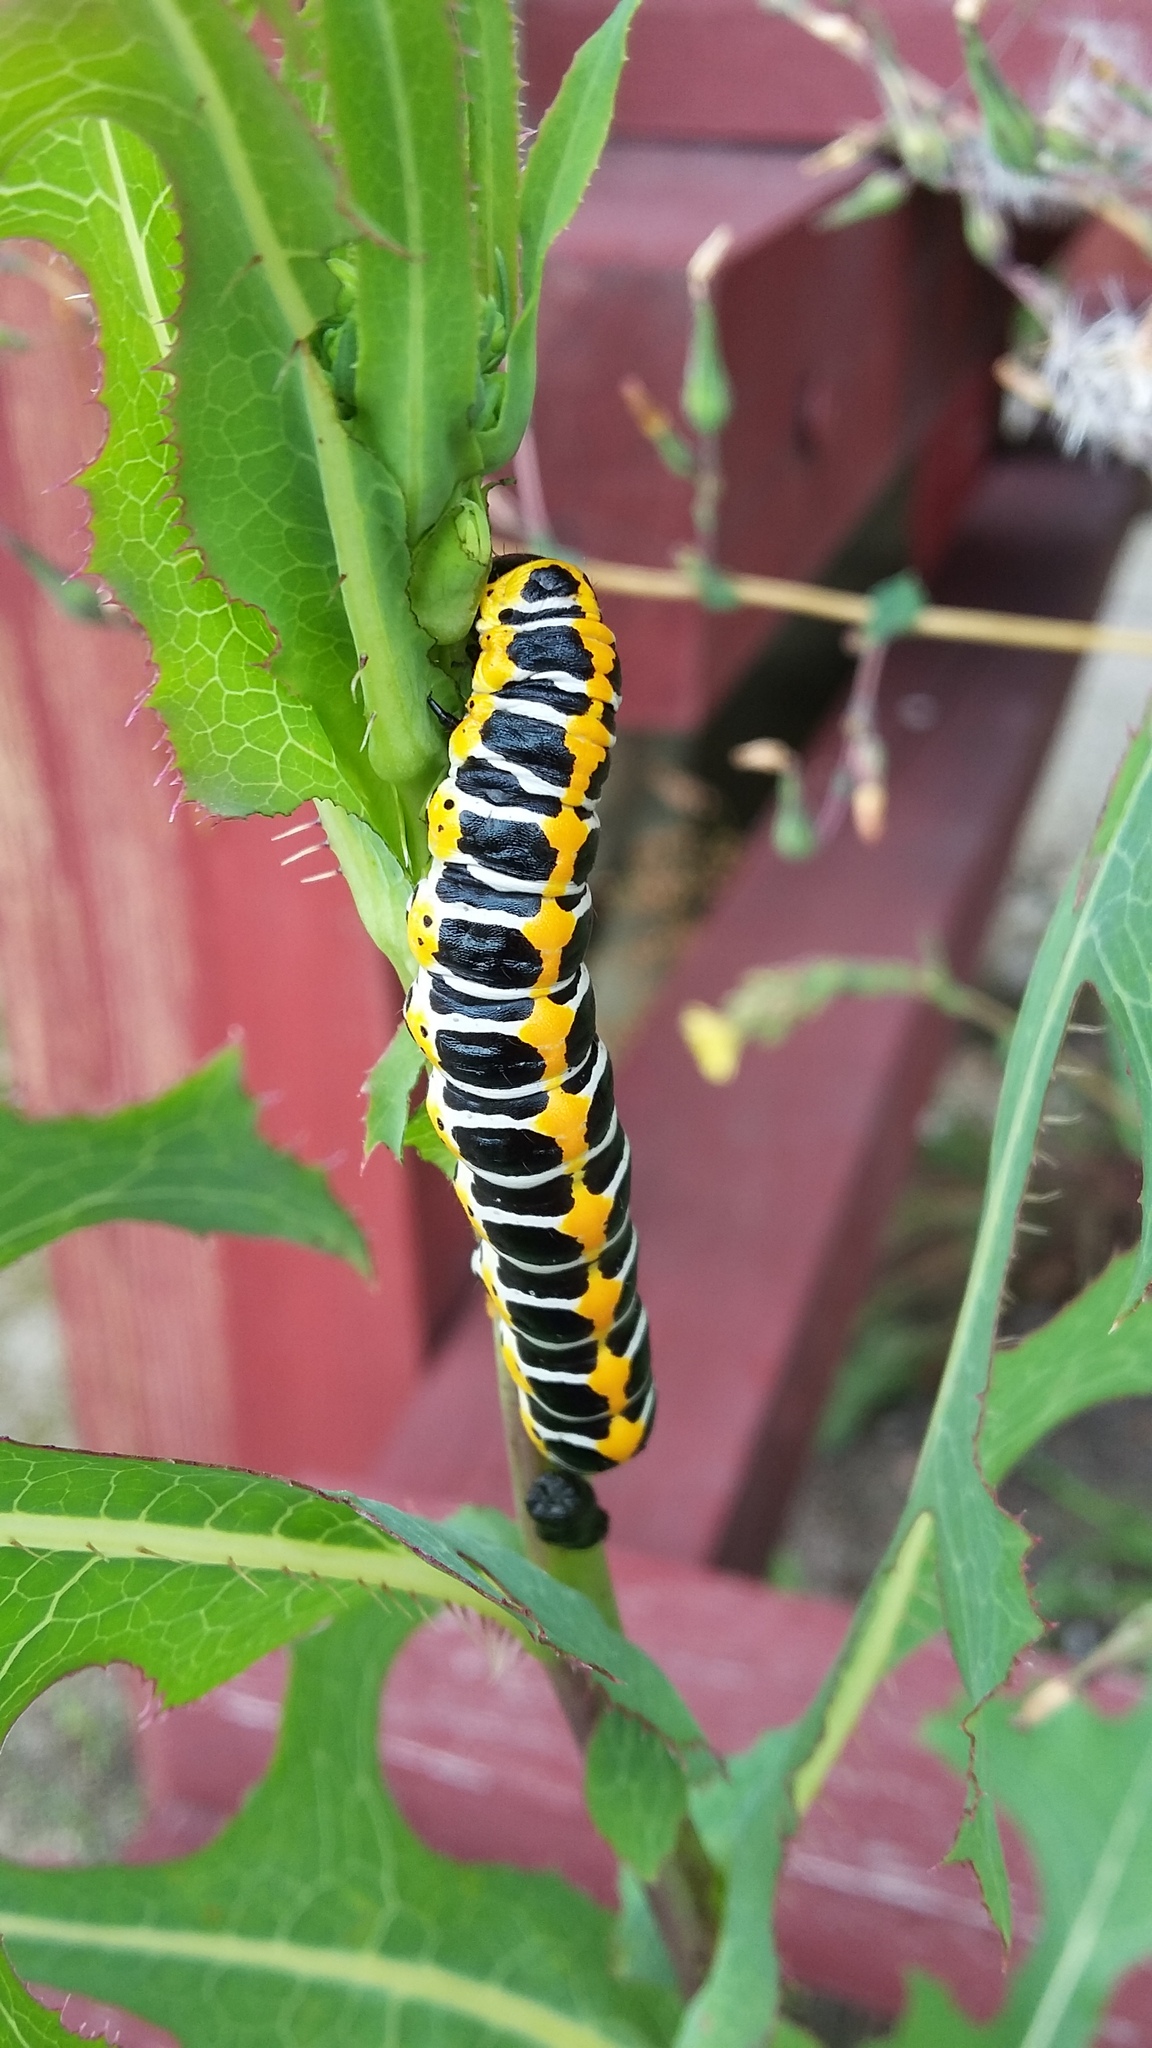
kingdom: Animalia
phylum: Arthropoda
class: Insecta
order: Lepidoptera
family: Noctuidae
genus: Cucullia
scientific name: Cucullia lactucae
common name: Lettuce shark
